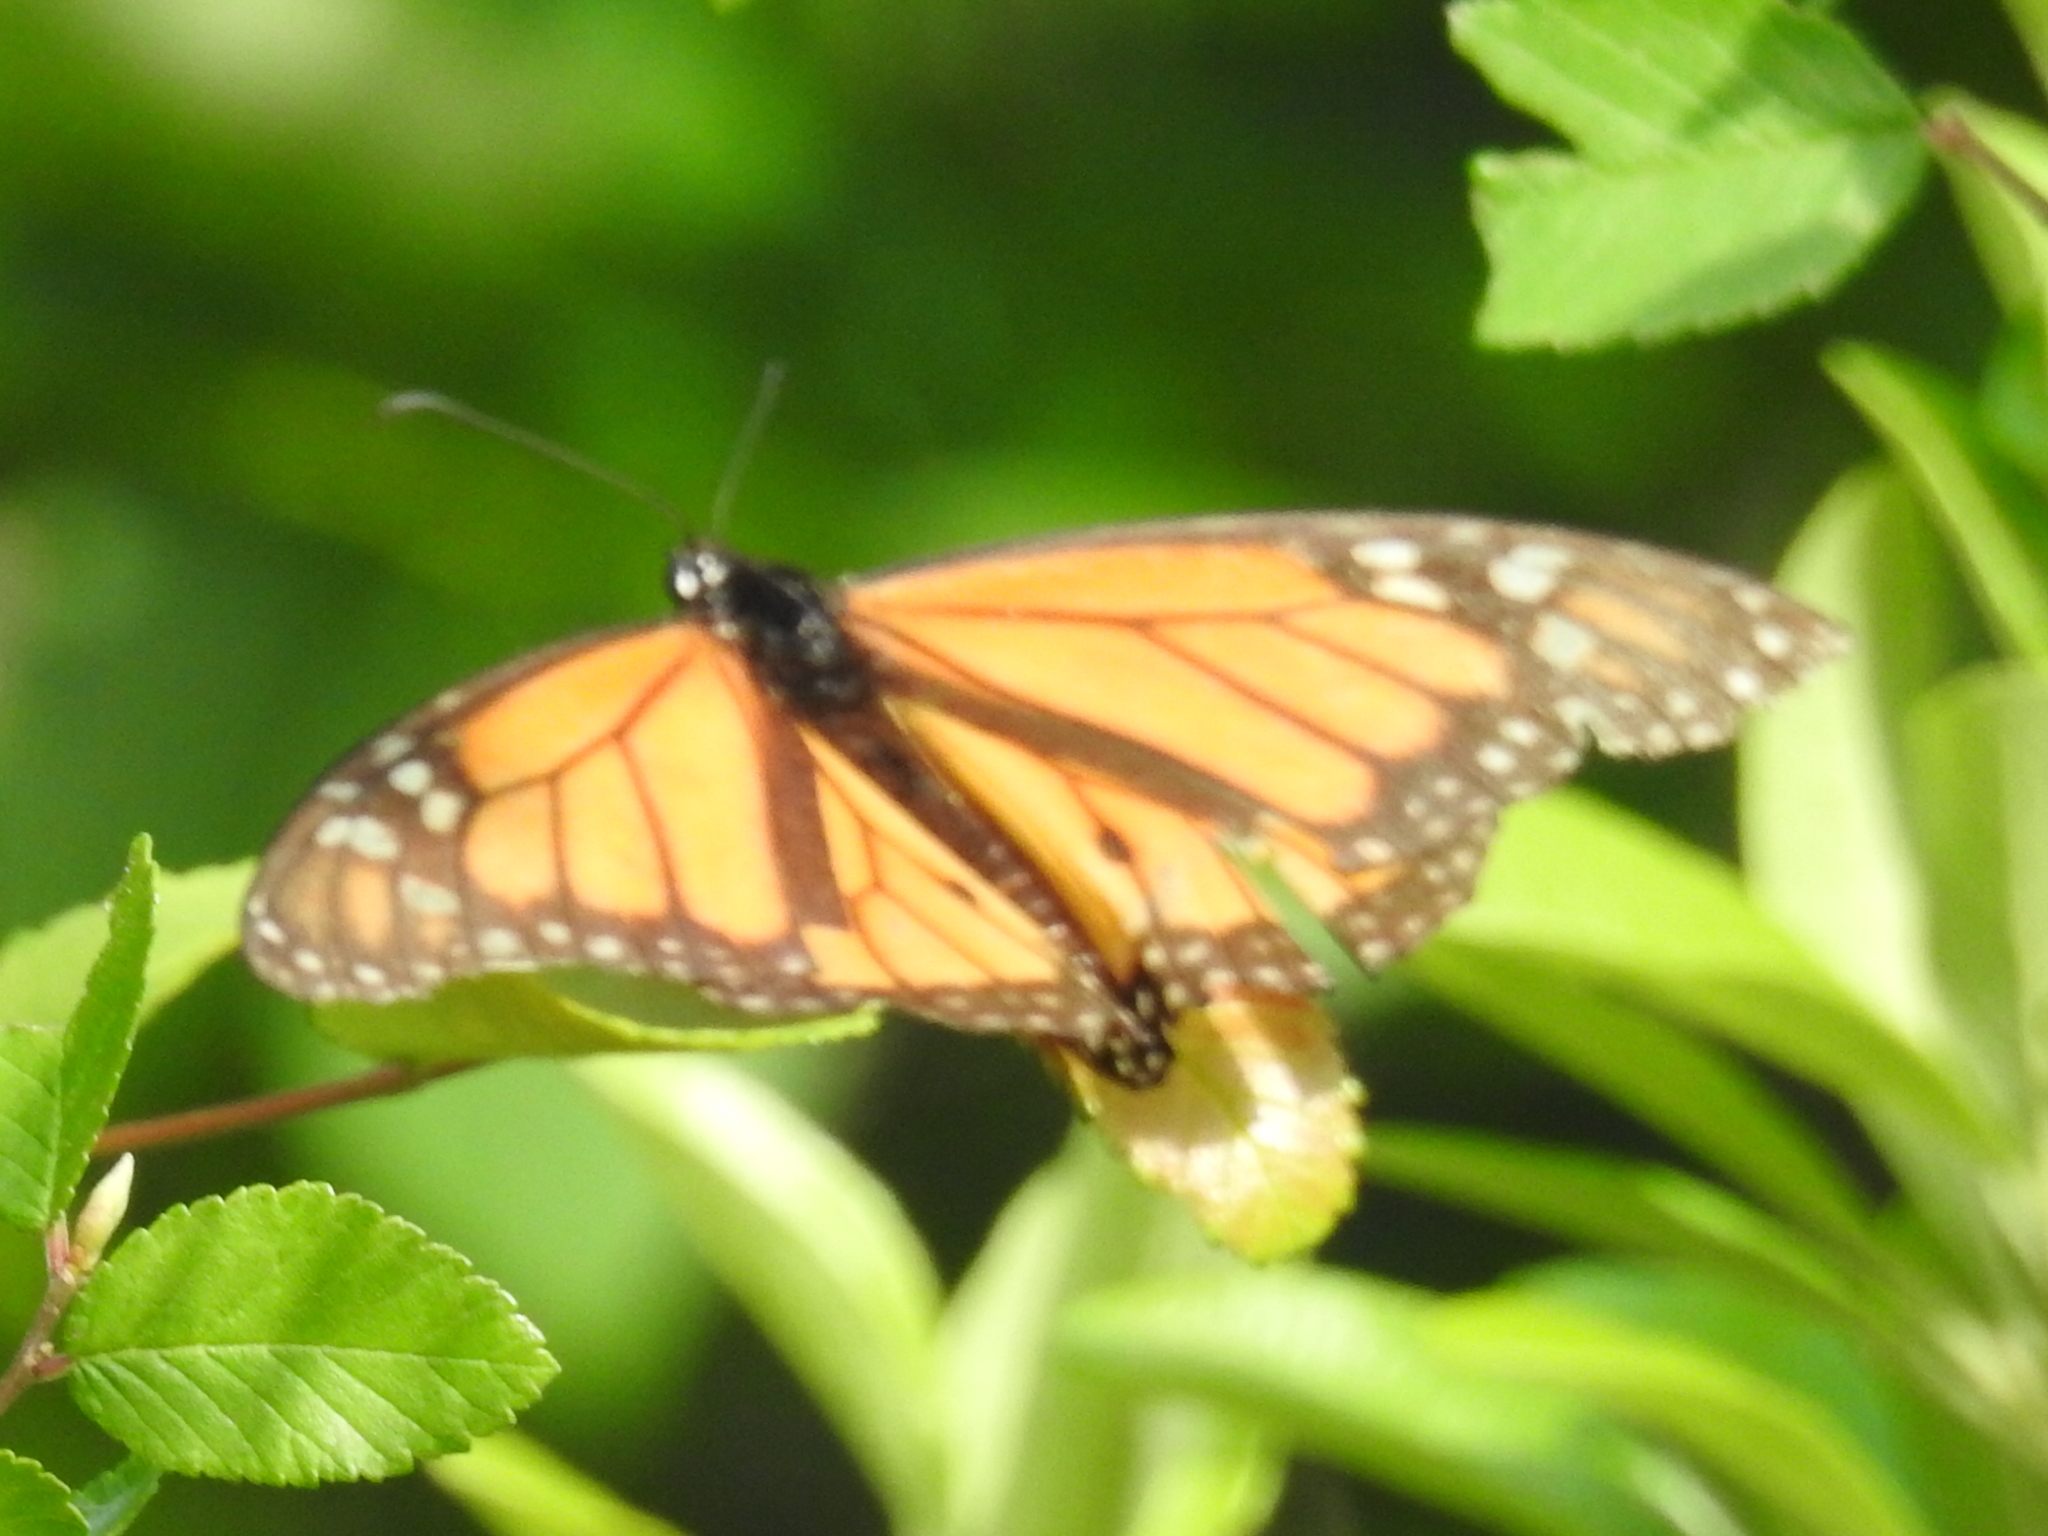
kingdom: Animalia
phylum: Arthropoda
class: Insecta
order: Lepidoptera
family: Nymphalidae
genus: Danaus
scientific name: Danaus plexippus
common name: Monarch
